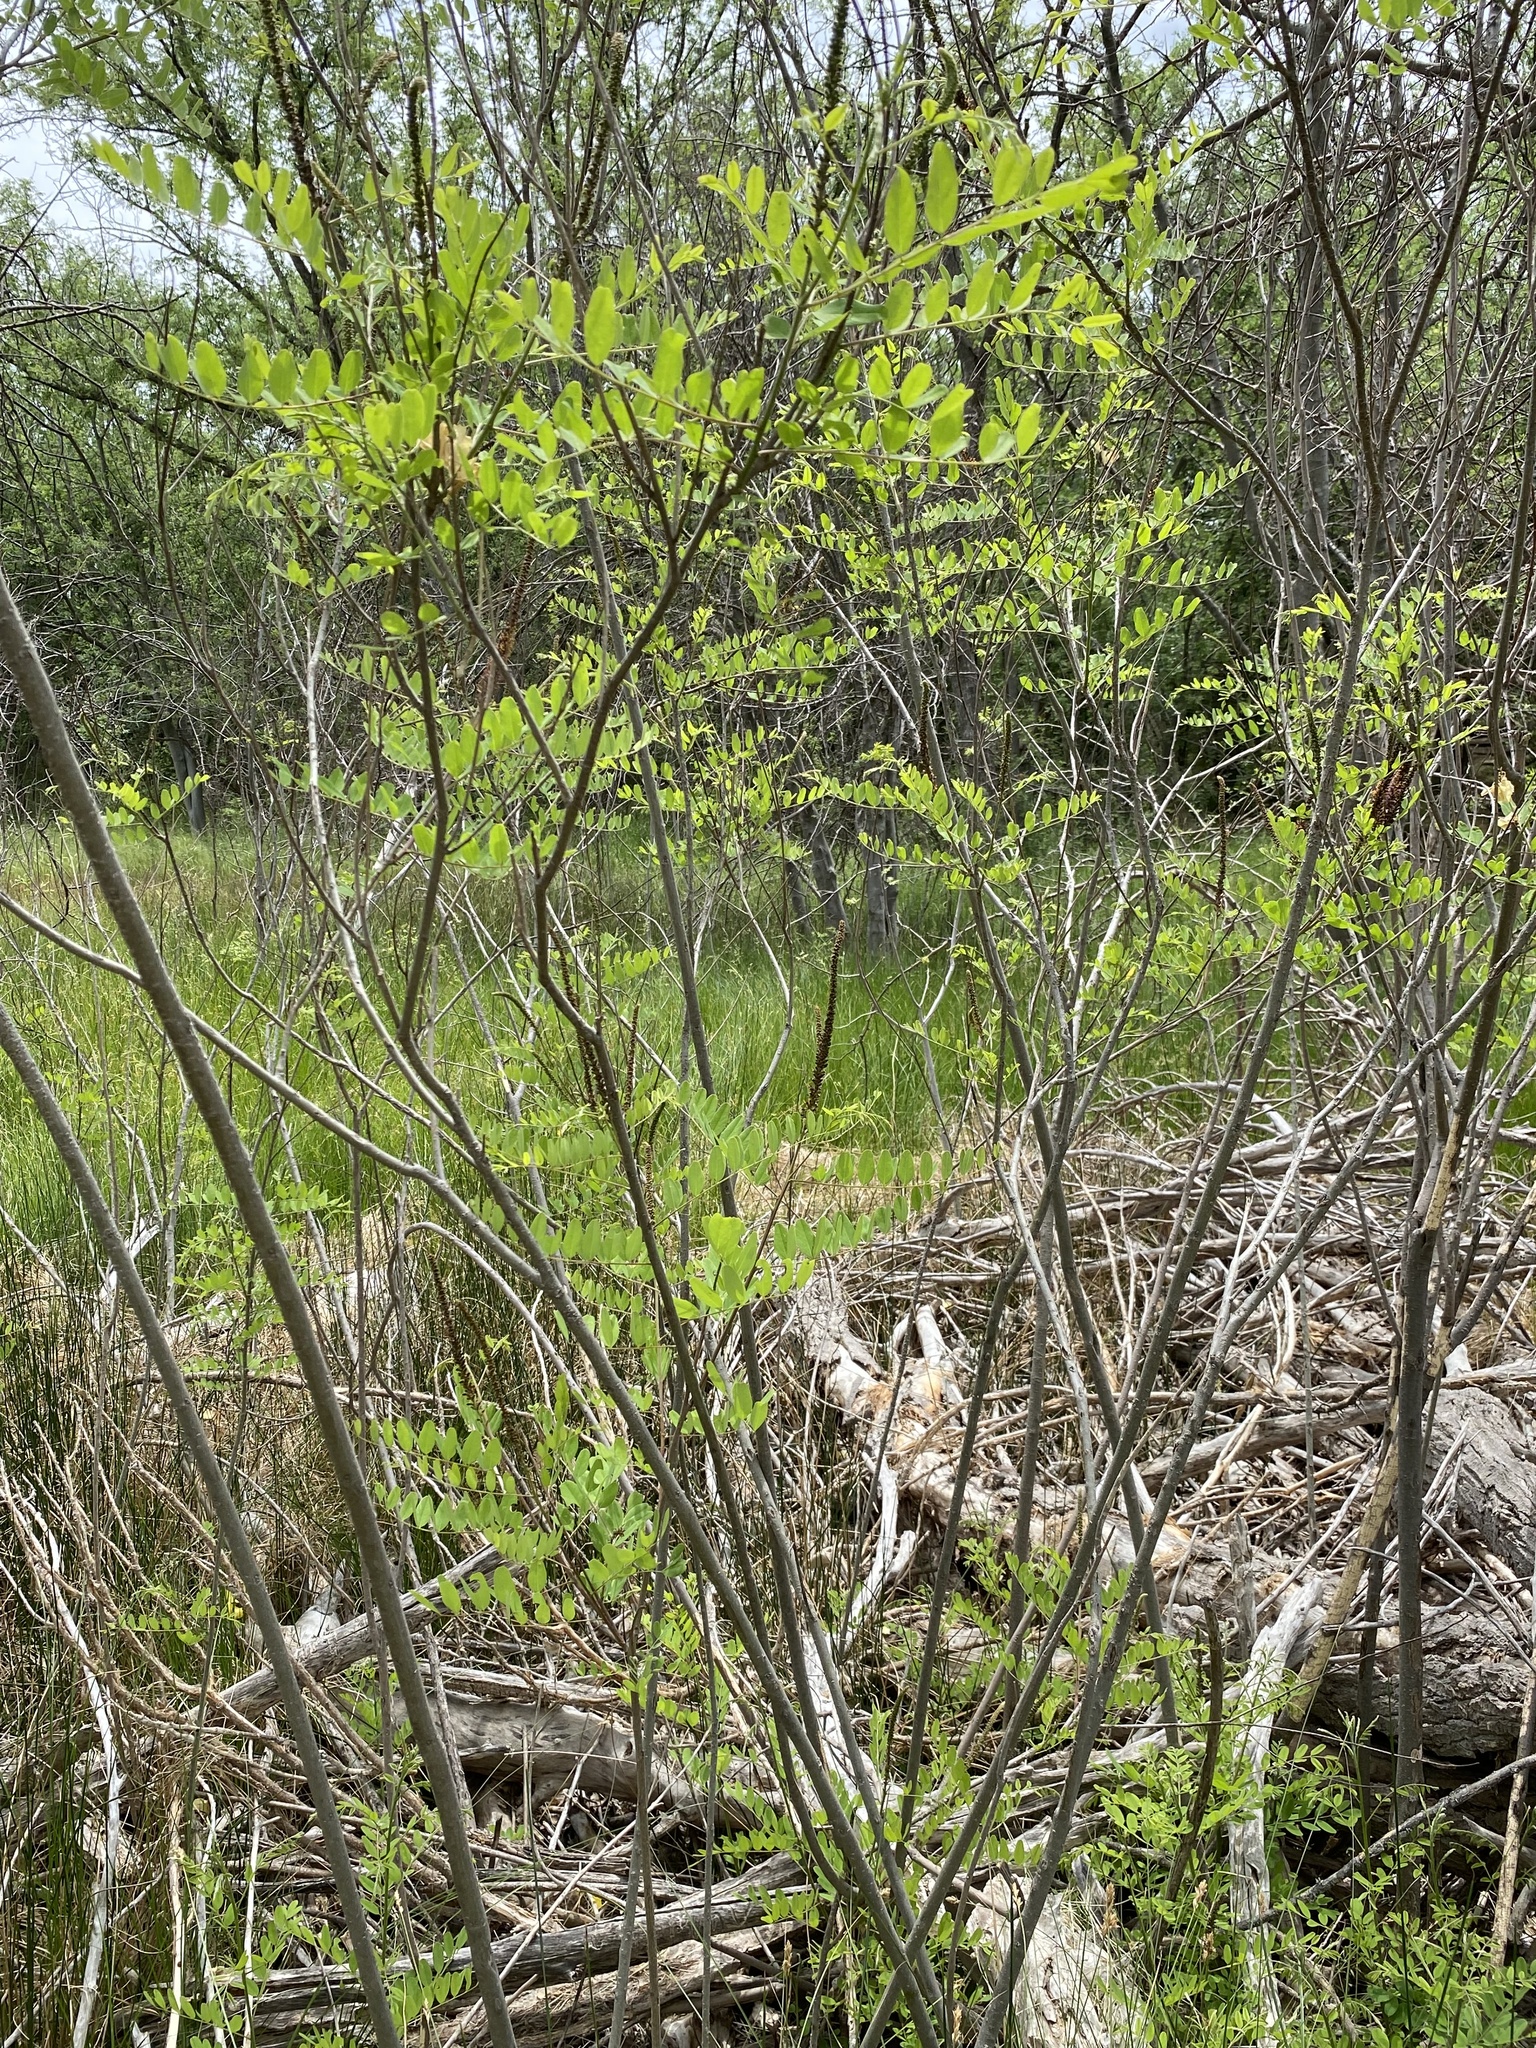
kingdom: Plantae
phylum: Tracheophyta
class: Magnoliopsida
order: Fabales
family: Fabaceae
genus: Amorpha
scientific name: Amorpha fruticosa
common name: False indigo
